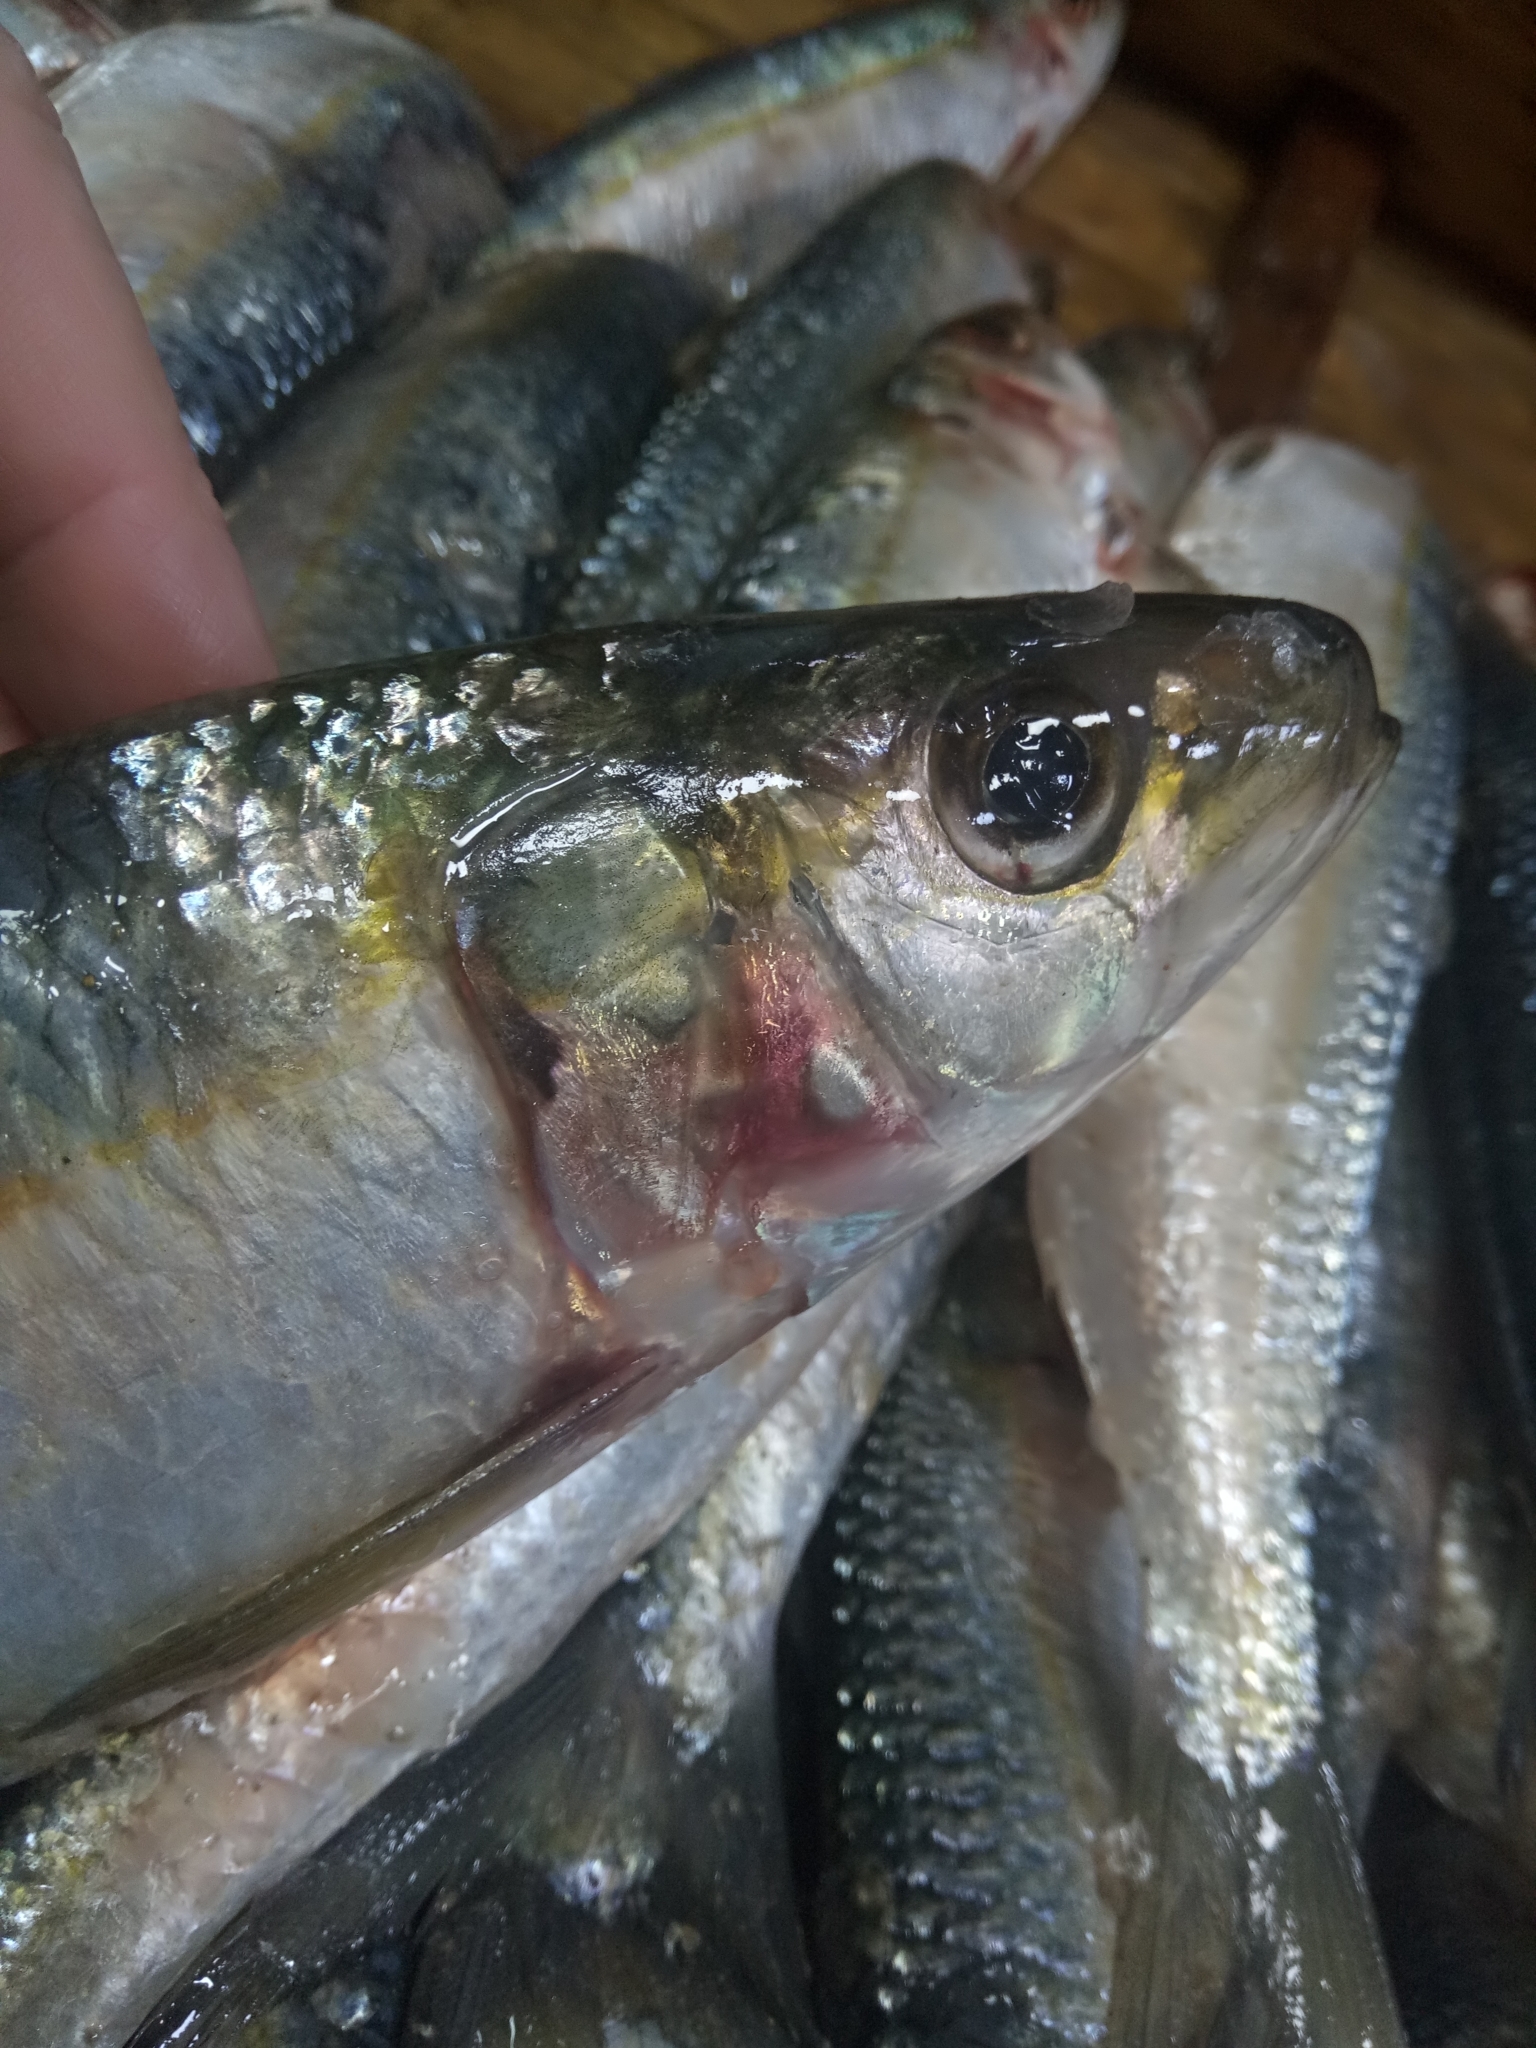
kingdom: Animalia
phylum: Chordata
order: Clupeiformes
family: Clupeidae
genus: Sardinella
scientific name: Sardinella aurita
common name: Round sardinella
